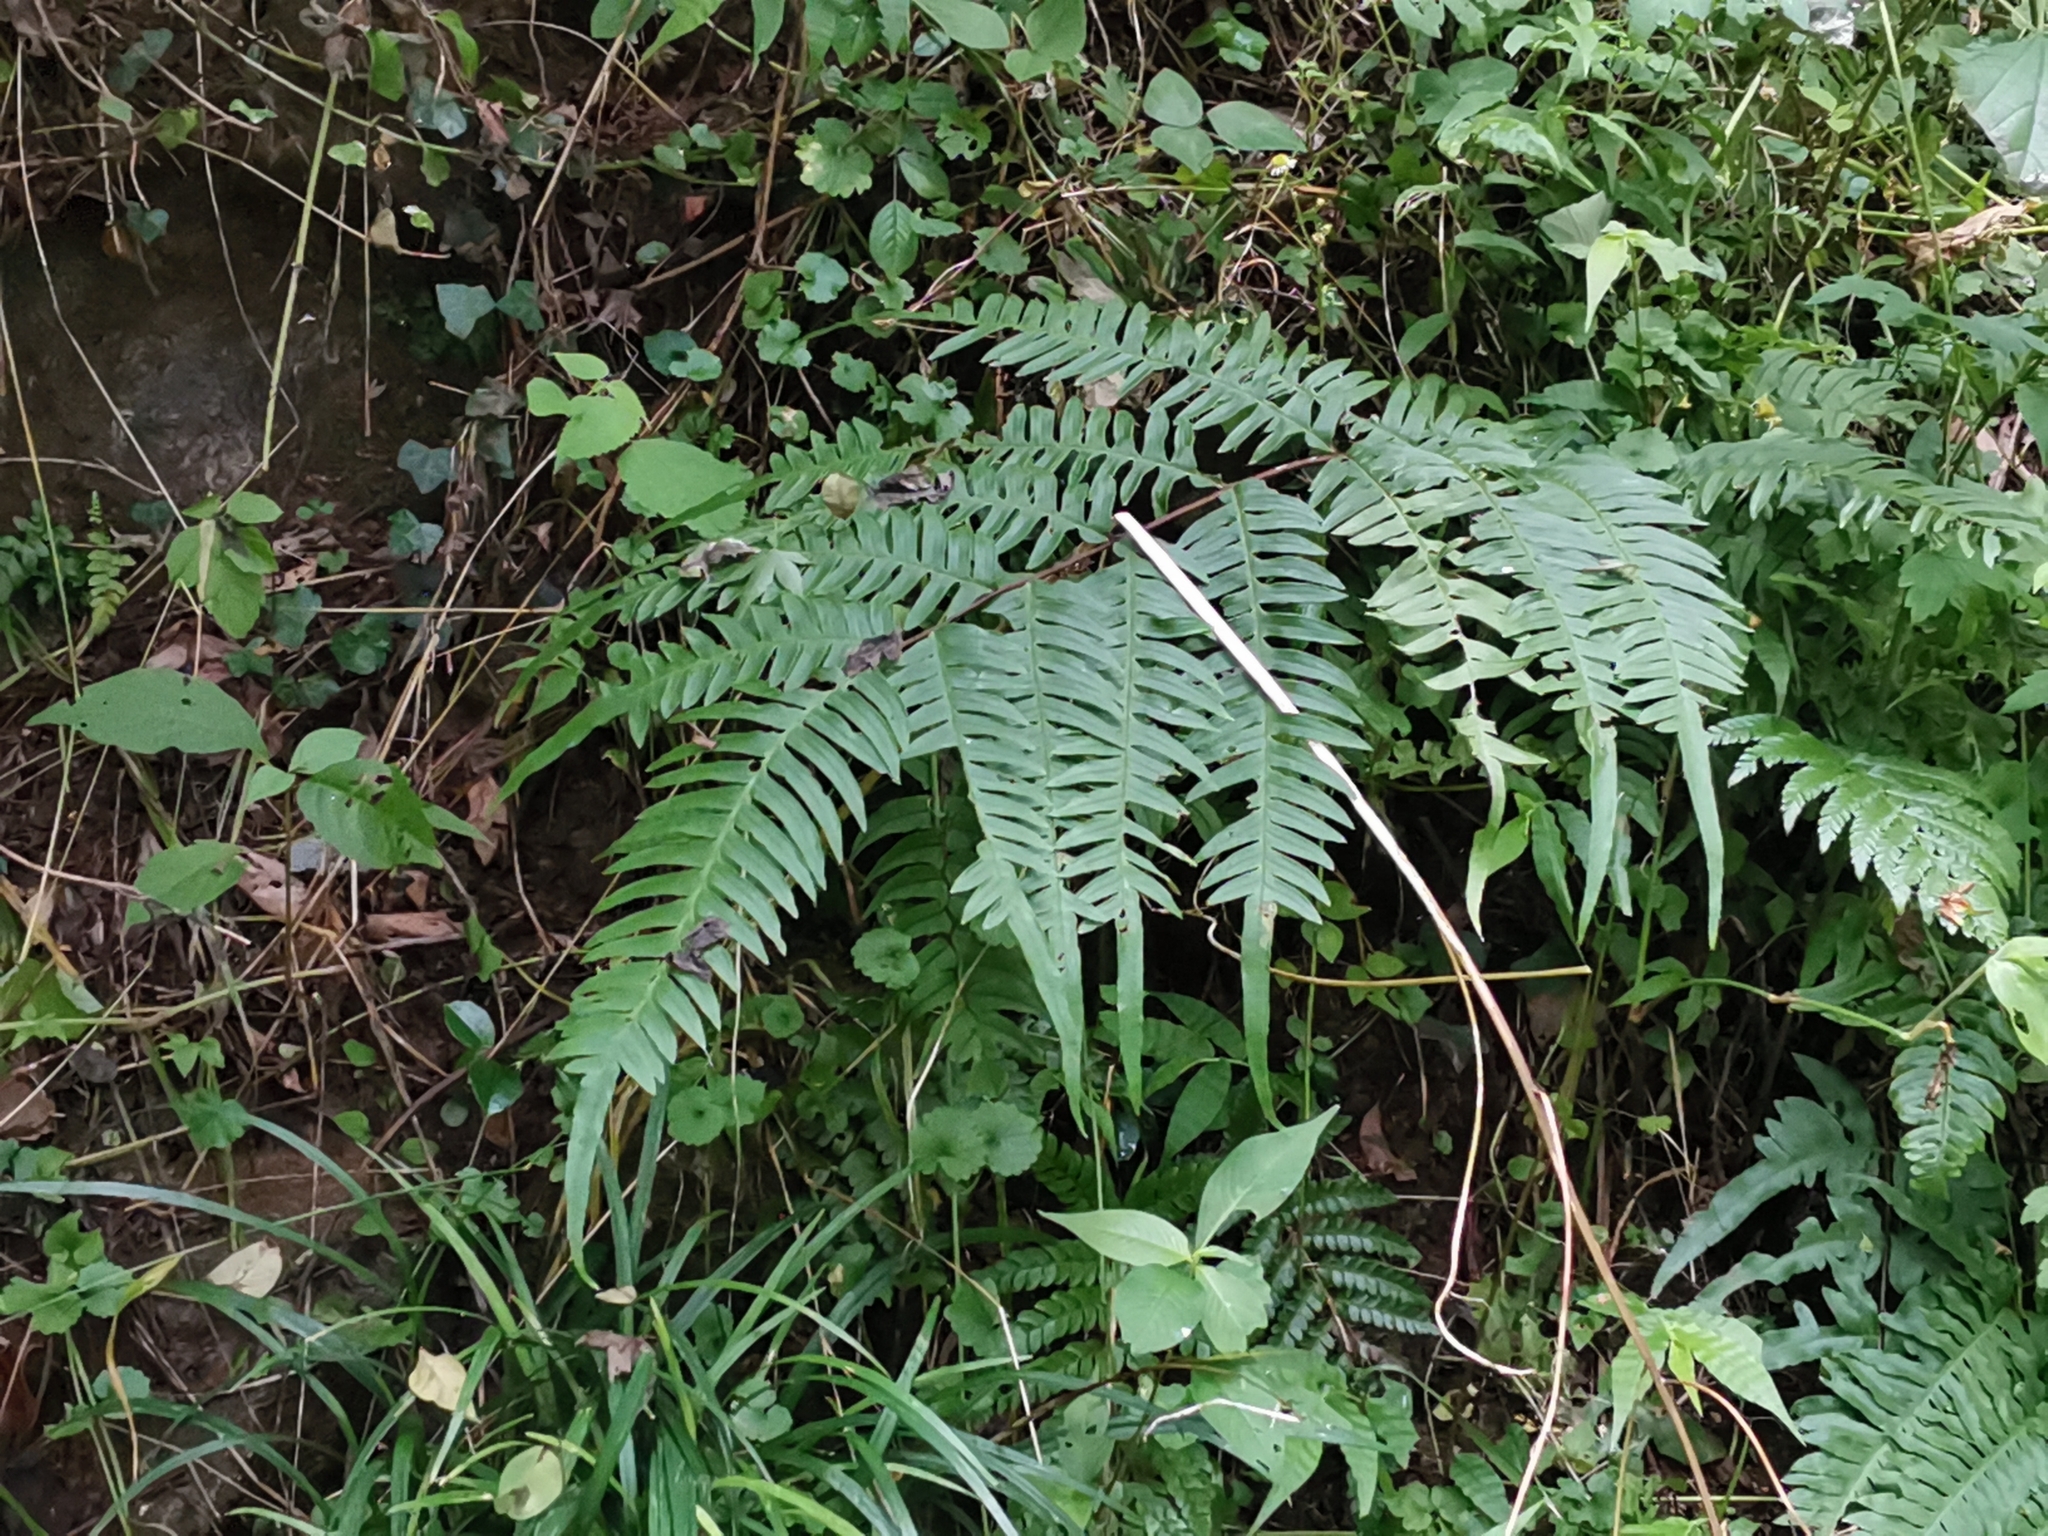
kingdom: Plantae
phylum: Tracheophyta
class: Polypodiopsida
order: Polypodiales
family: Pteridaceae
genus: Pteris
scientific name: Pteris terminalis
